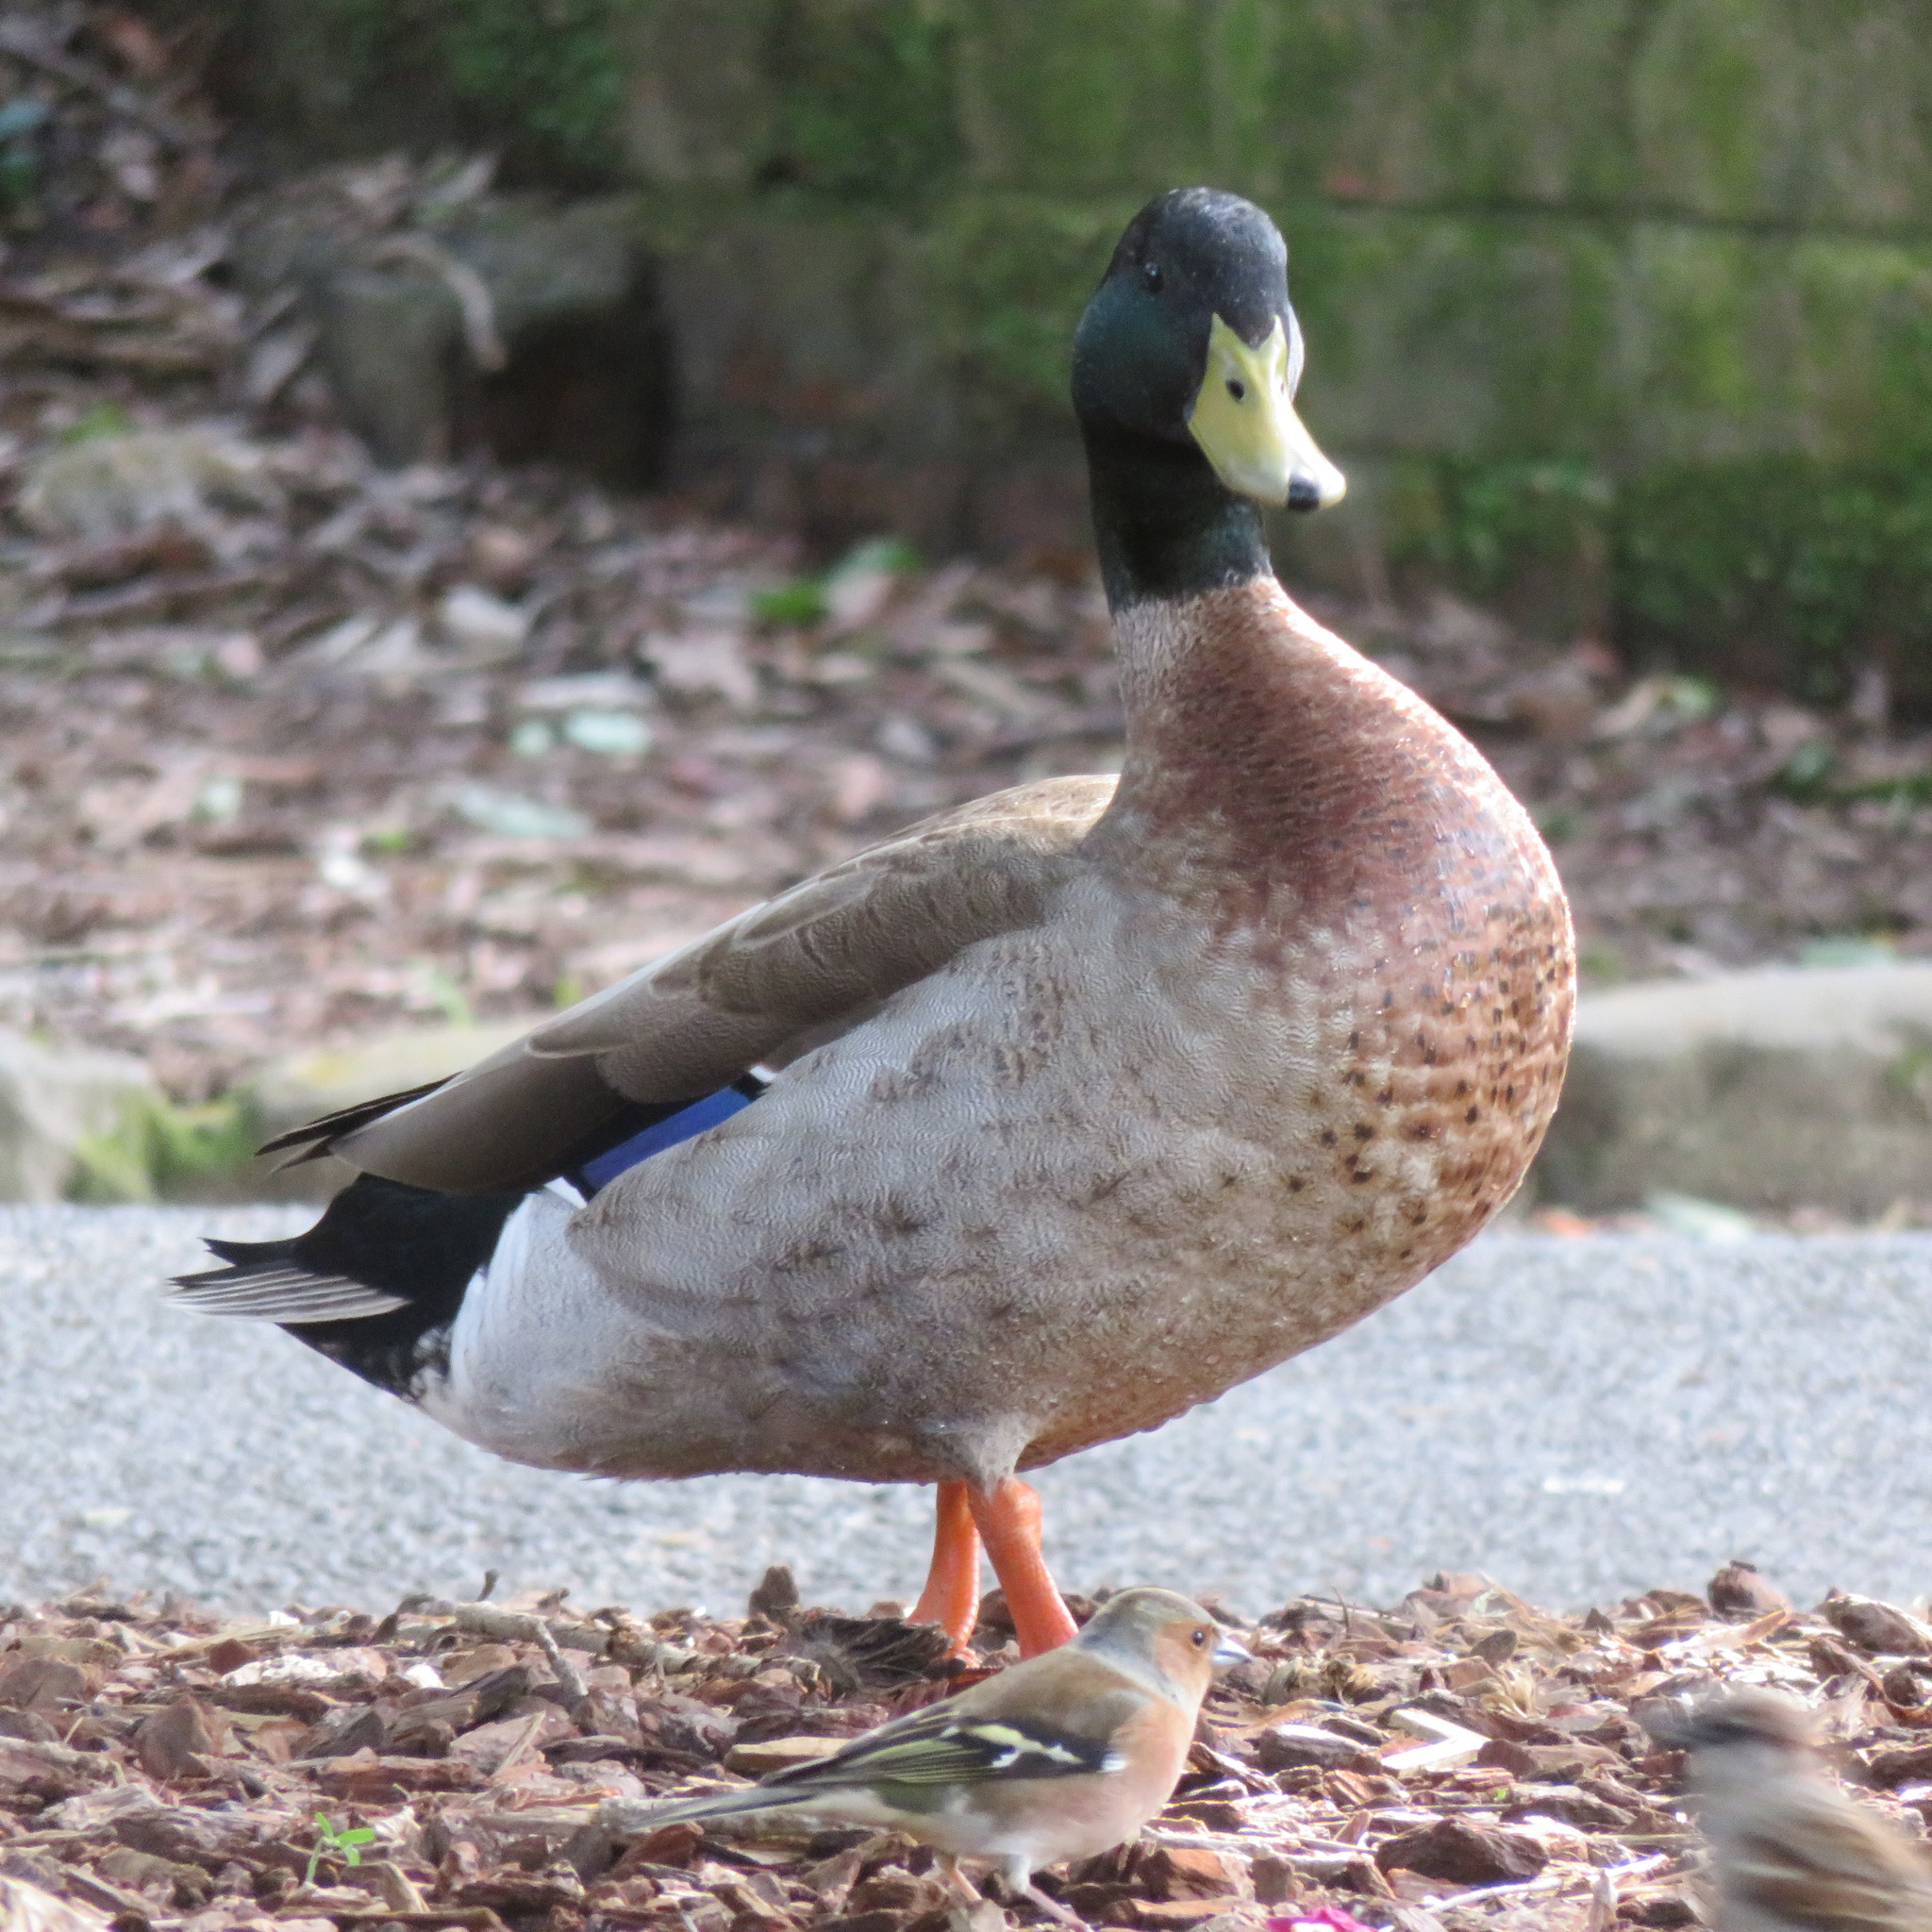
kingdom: Animalia
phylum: Chordata
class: Aves
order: Anseriformes
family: Anatidae
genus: Anas
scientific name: Anas platyrhynchos
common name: Mallard
